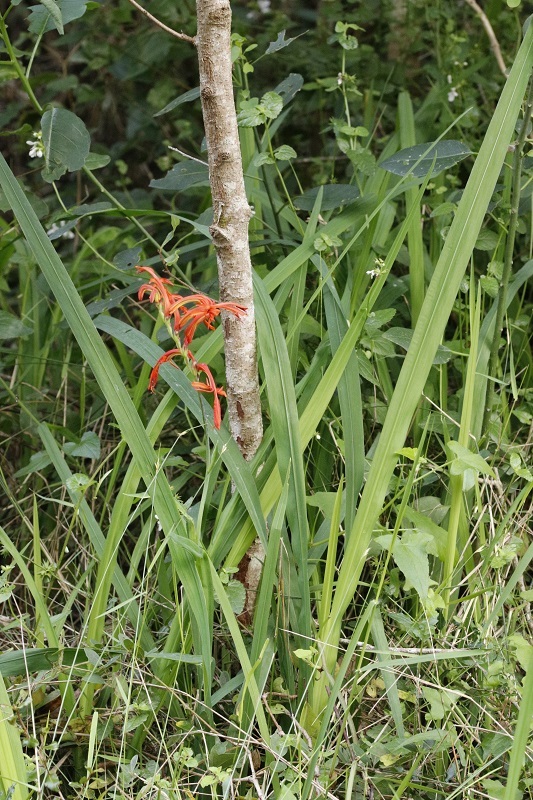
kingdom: Plantae
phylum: Tracheophyta
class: Liliopsida
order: Asparagales
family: Iridaceae
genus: Chasmanthe
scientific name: Chasmanthe aethiopica
